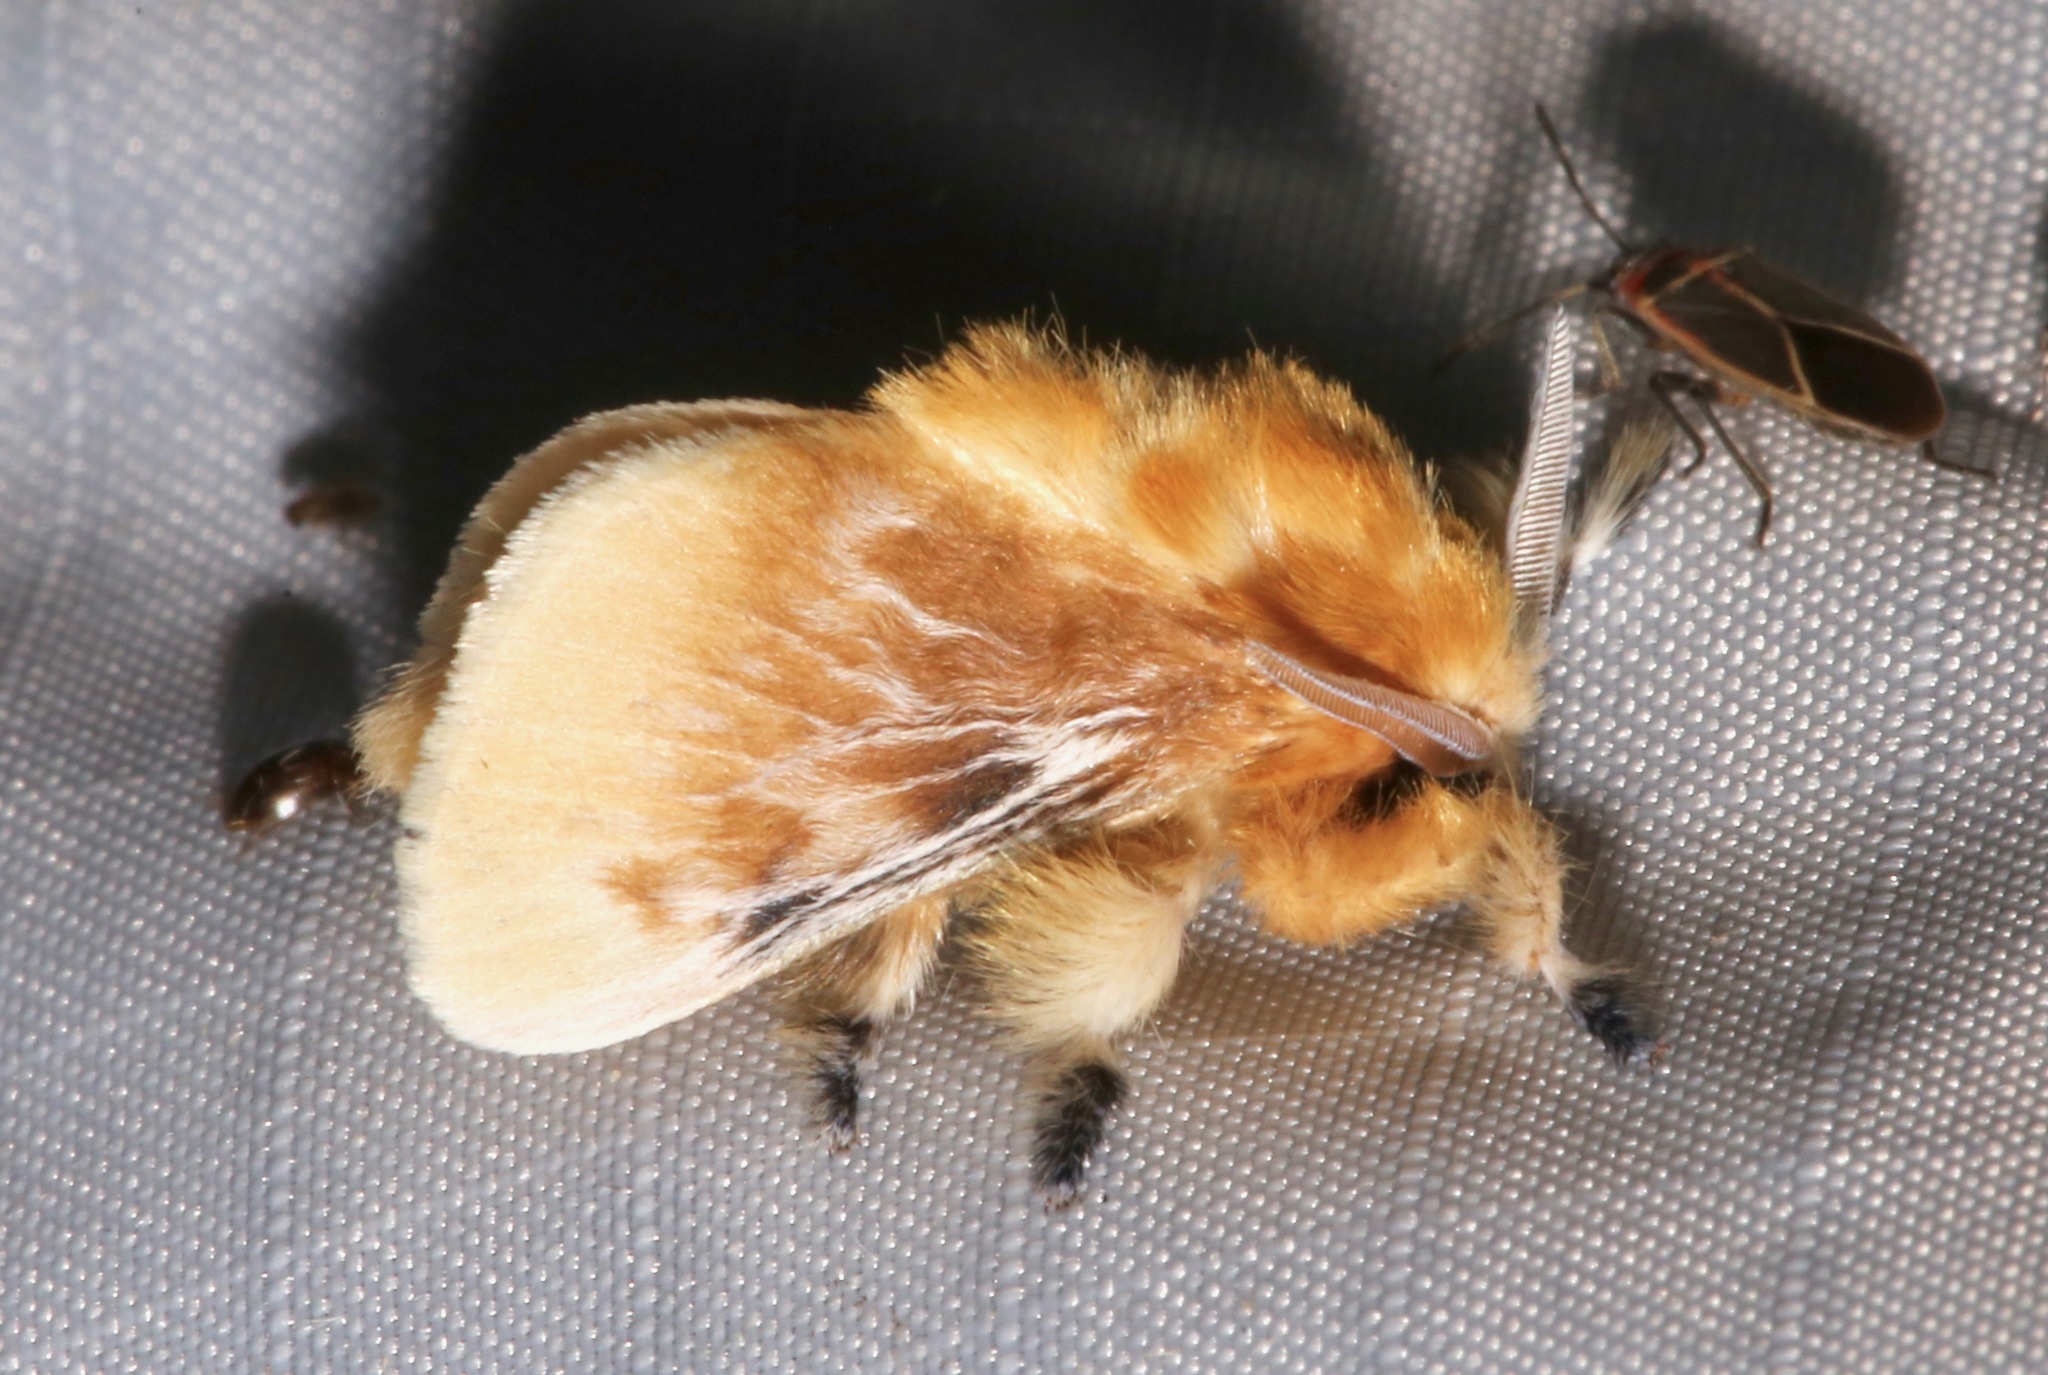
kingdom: Animalia
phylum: Arthropoda
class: Insecta
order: Lepidoptera
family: Megalopygidae
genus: Megalopyge
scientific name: Megalopyge opercularis
